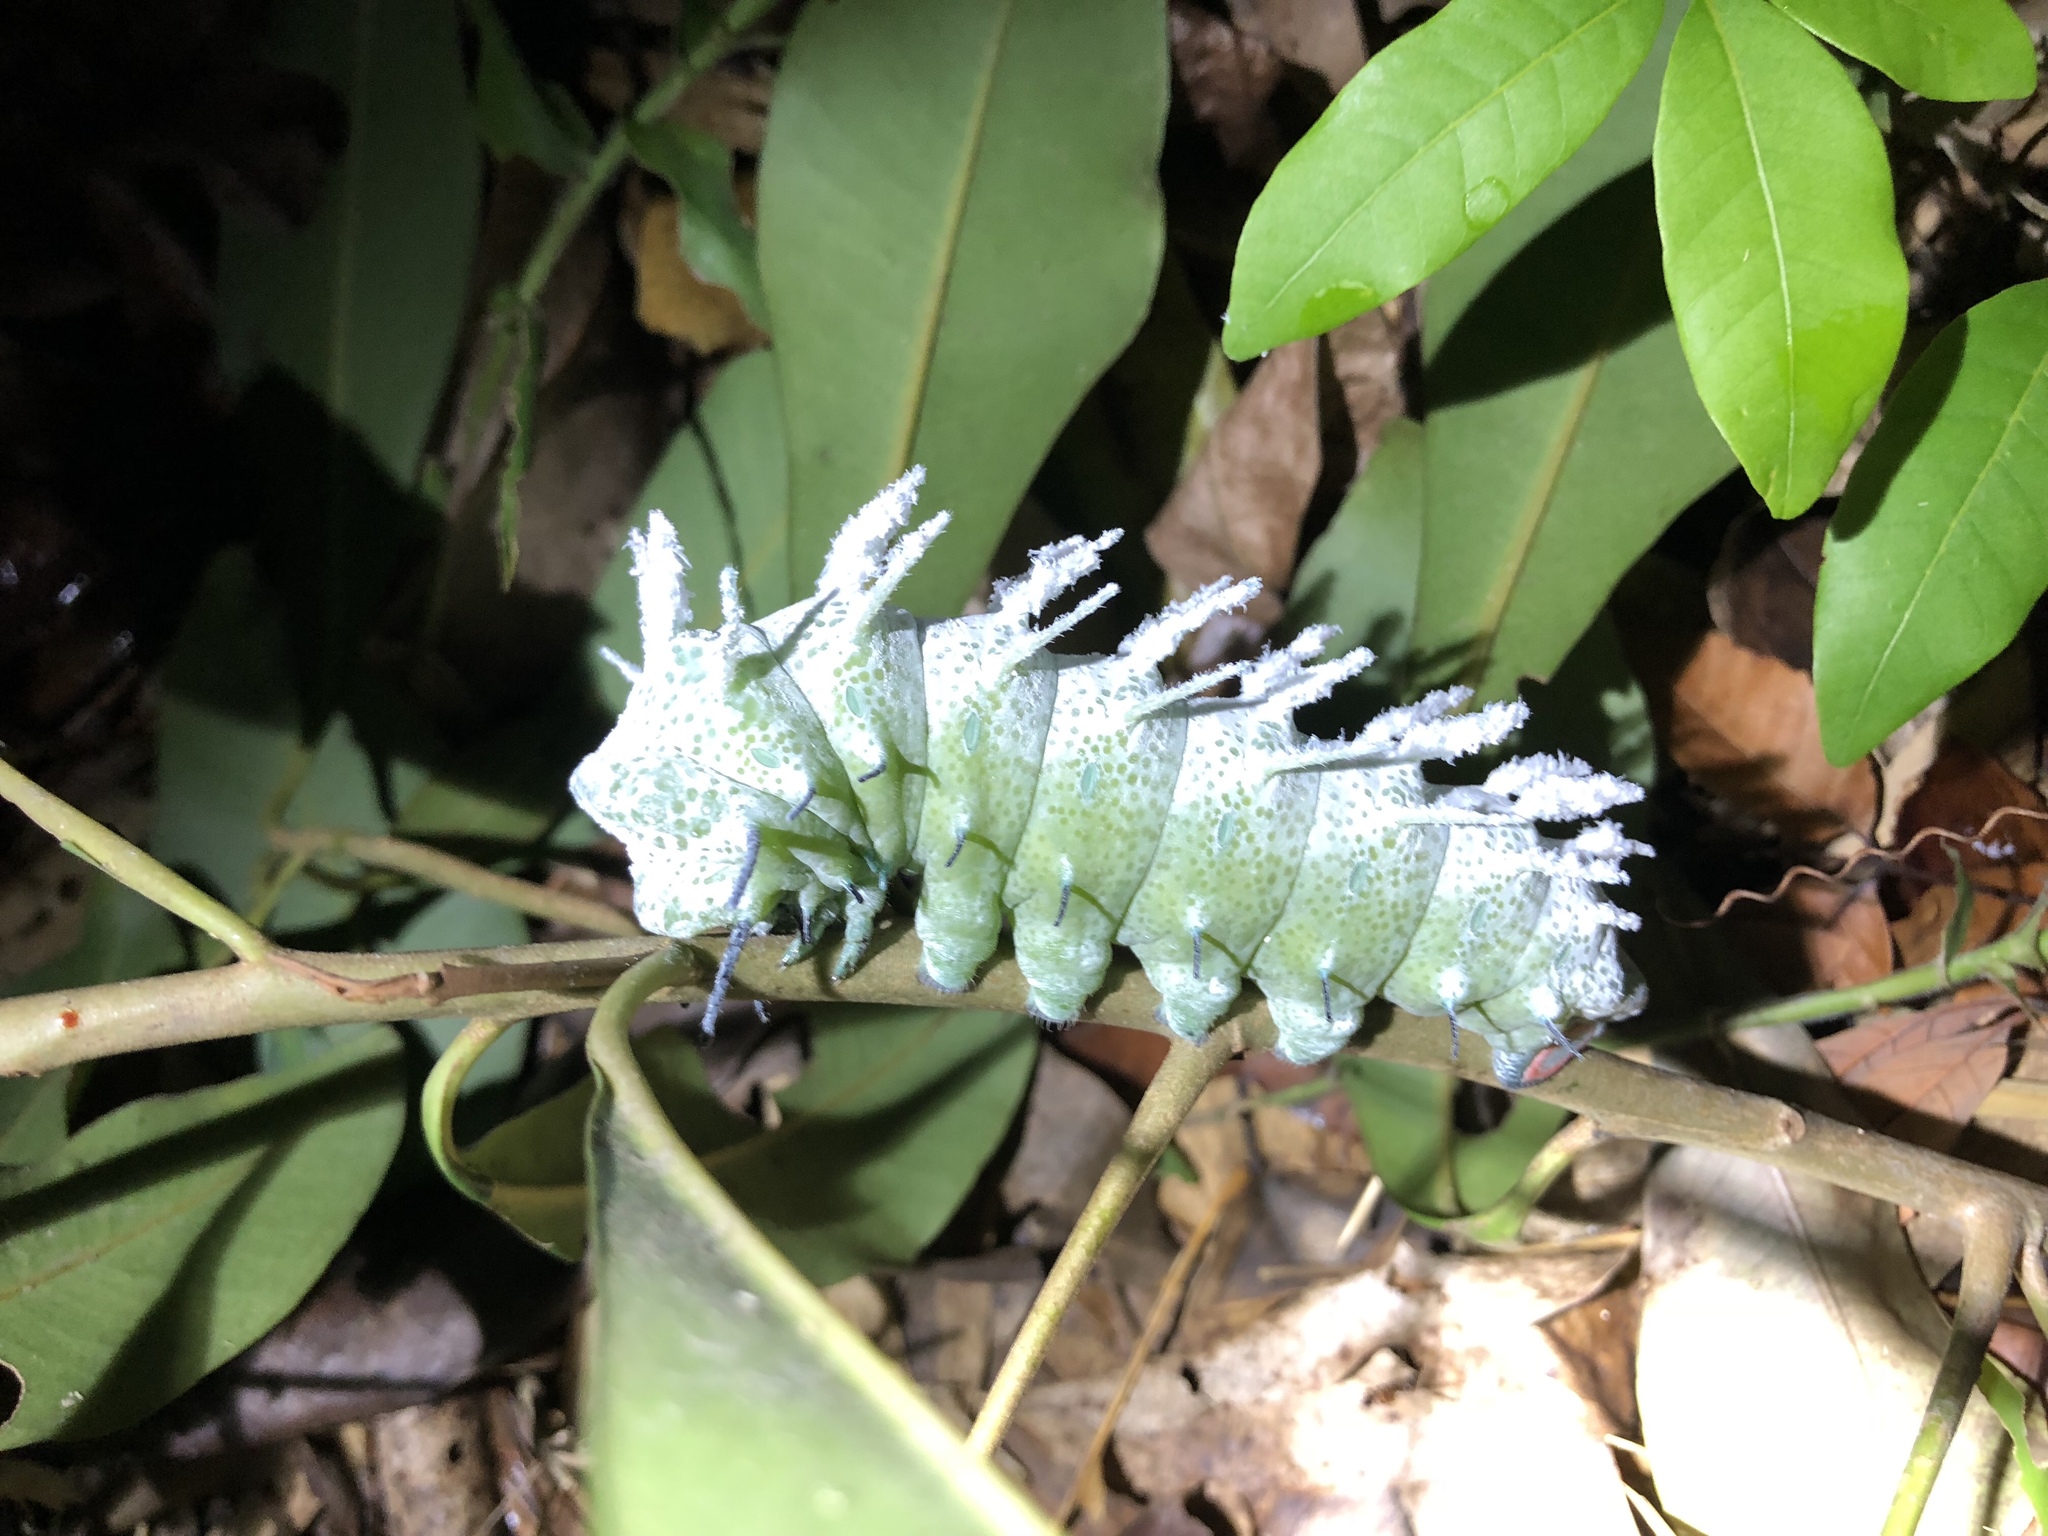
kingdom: Animalia
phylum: Arthropoda
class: Insecta
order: Lepidoptera
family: Saturniidae
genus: Attacus
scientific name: Attacus atlas
